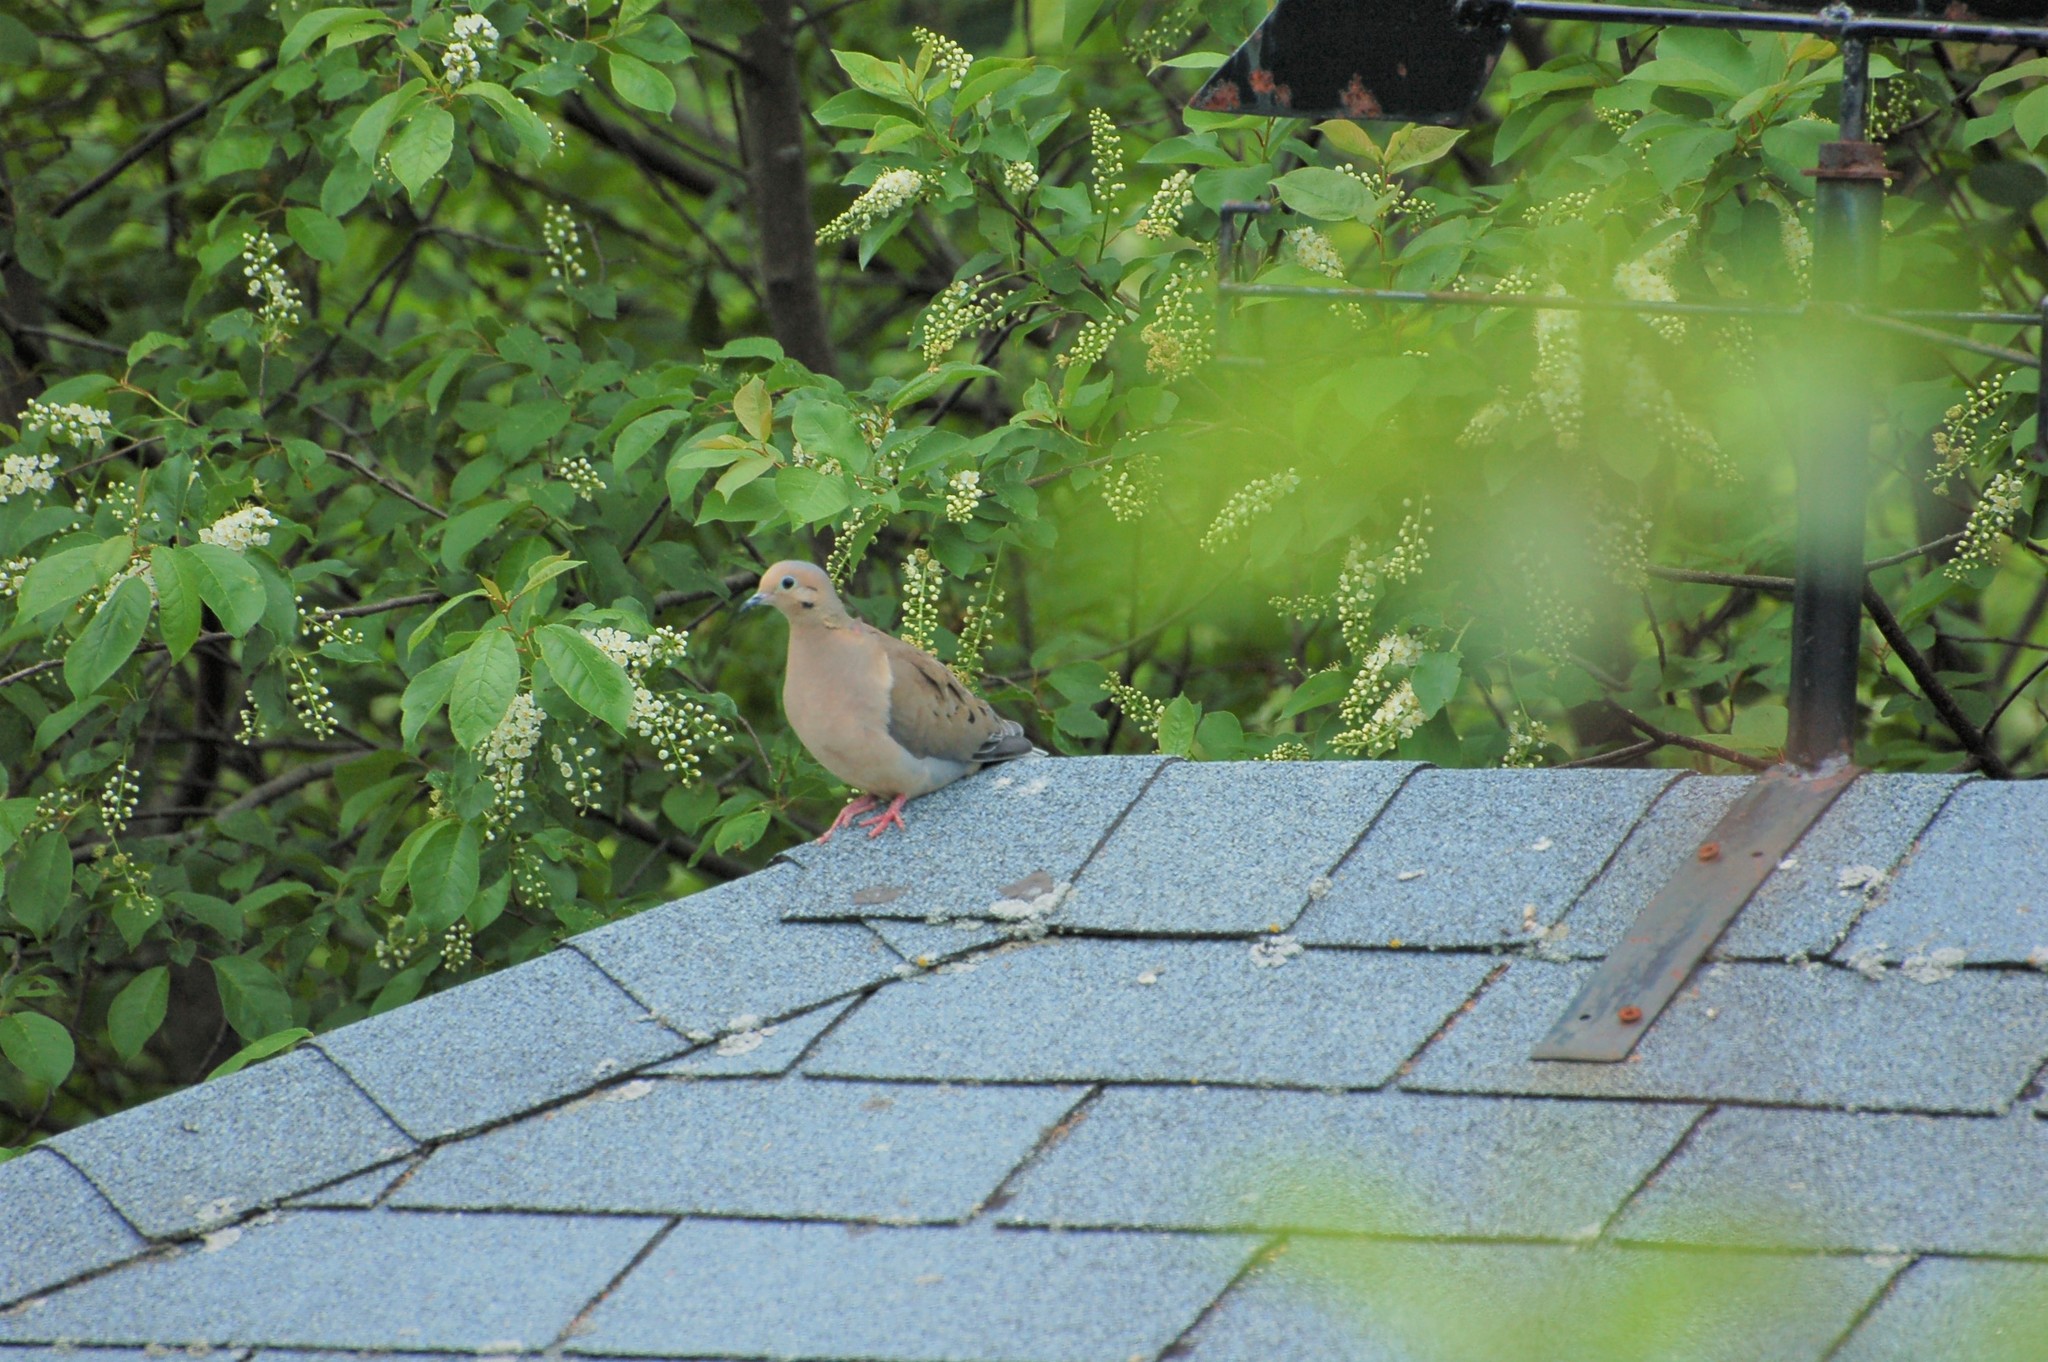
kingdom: Animalia
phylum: Chordata
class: Aves
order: Columbiformes
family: Columbidae
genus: Zenaida
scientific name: Zenaida macroura
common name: Mourning dove
